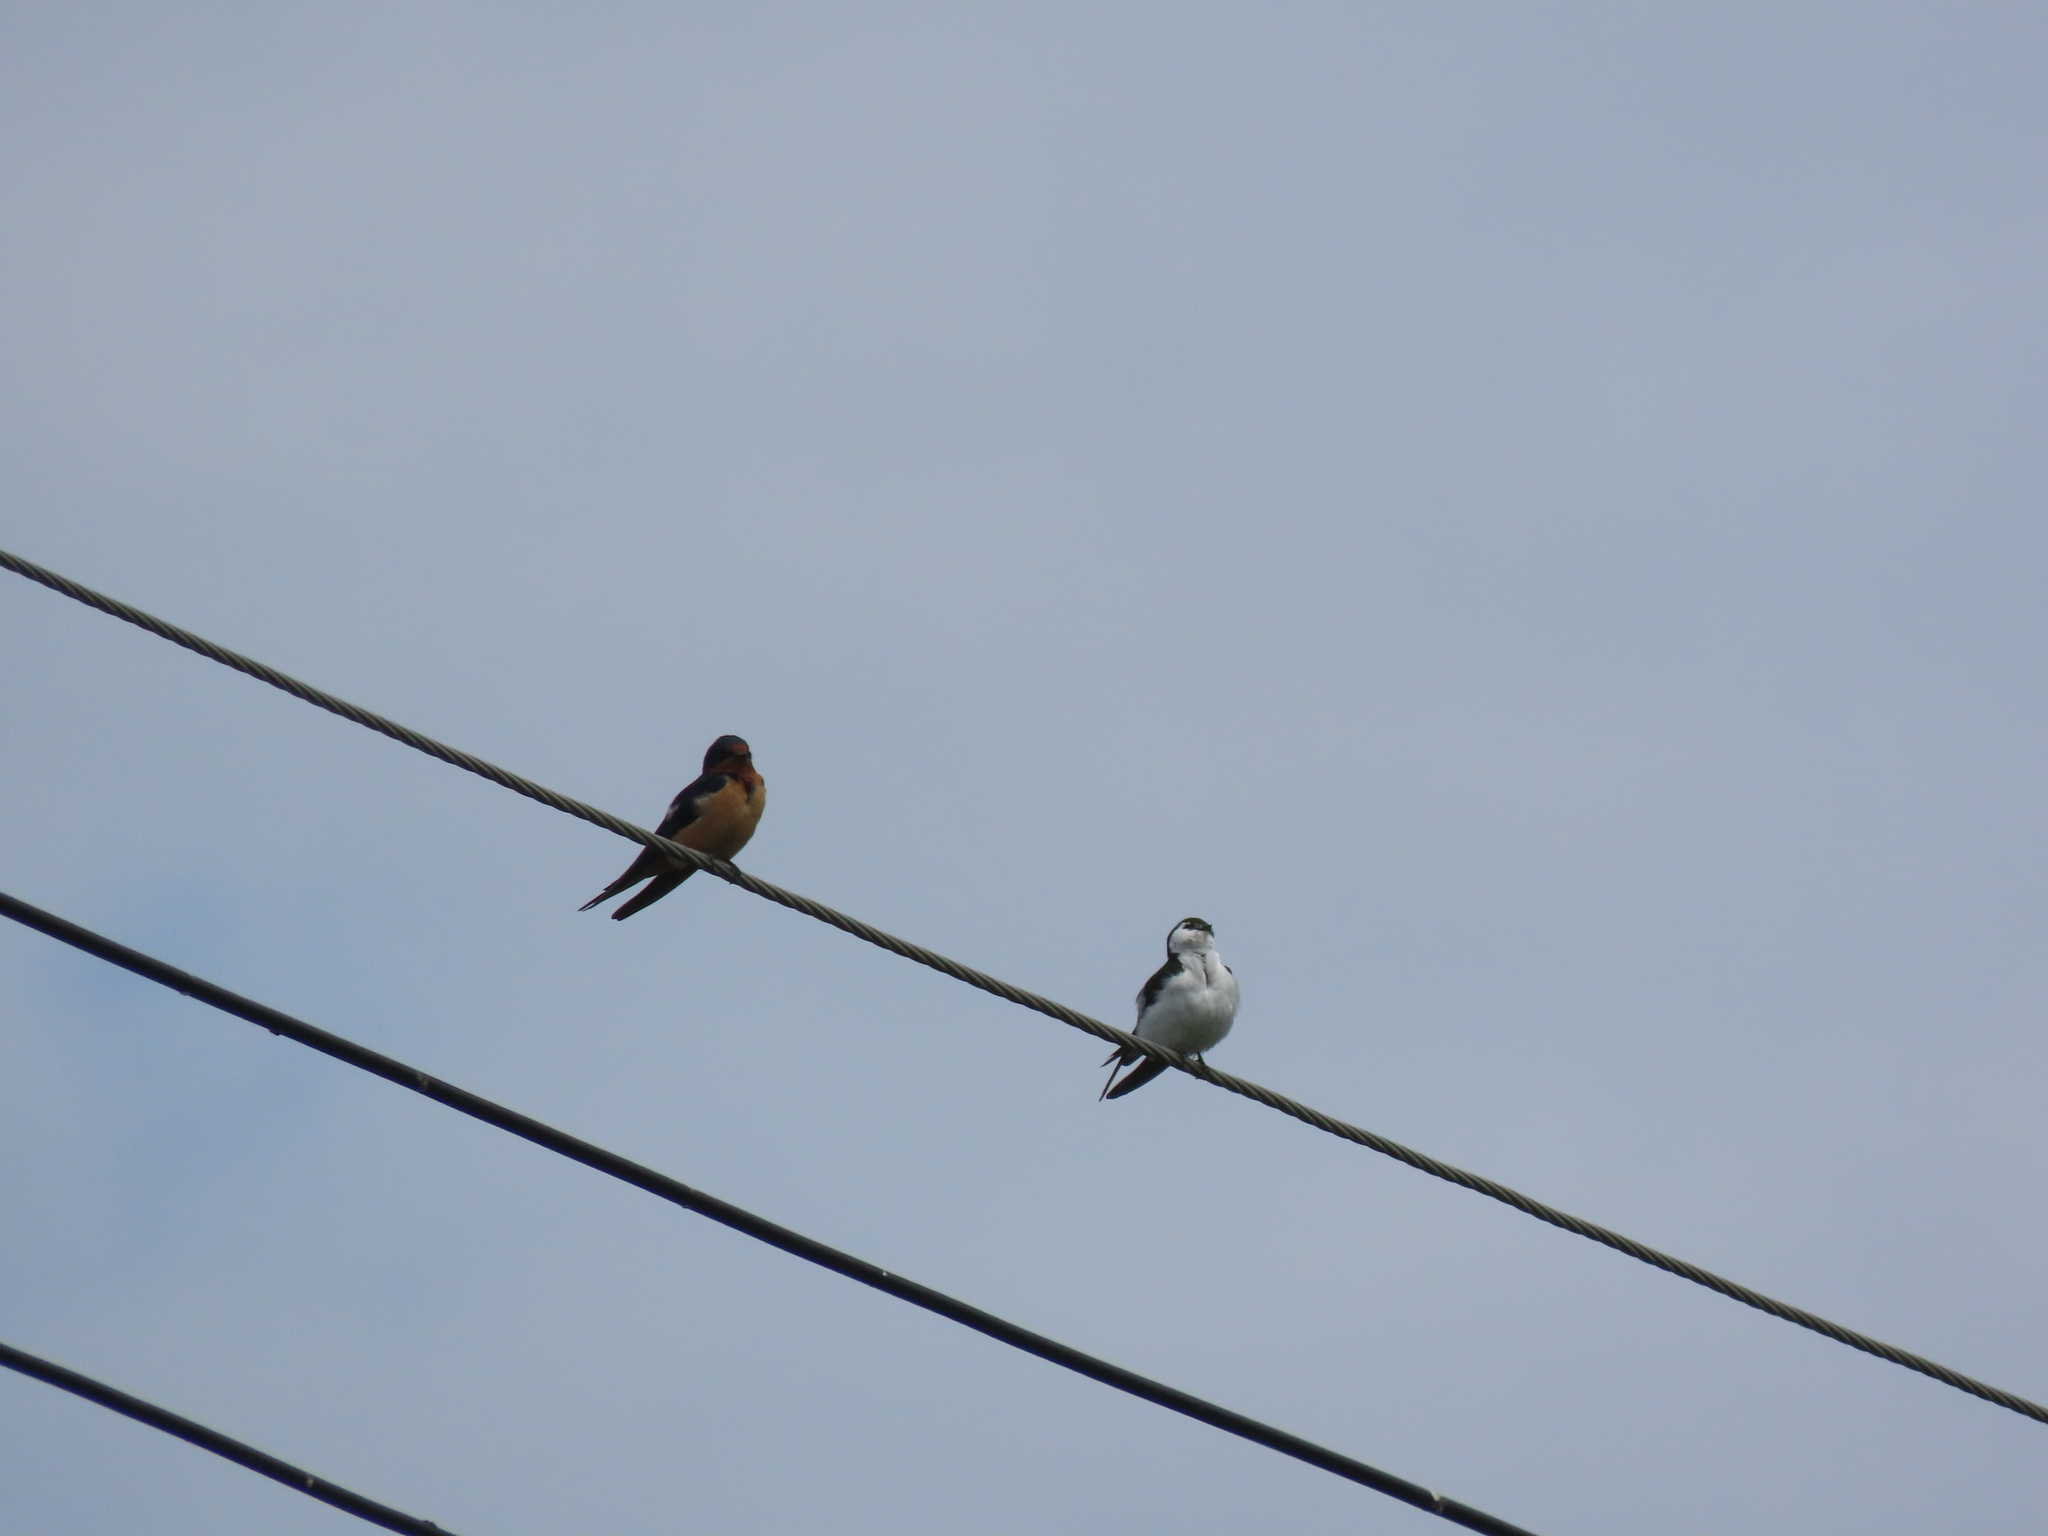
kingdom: Animalia
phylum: Chordata
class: Aves
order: Passeriformes
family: Hirundinidae
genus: Tachycineta
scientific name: Tachycineta thalassina
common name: Violet-green swallow
